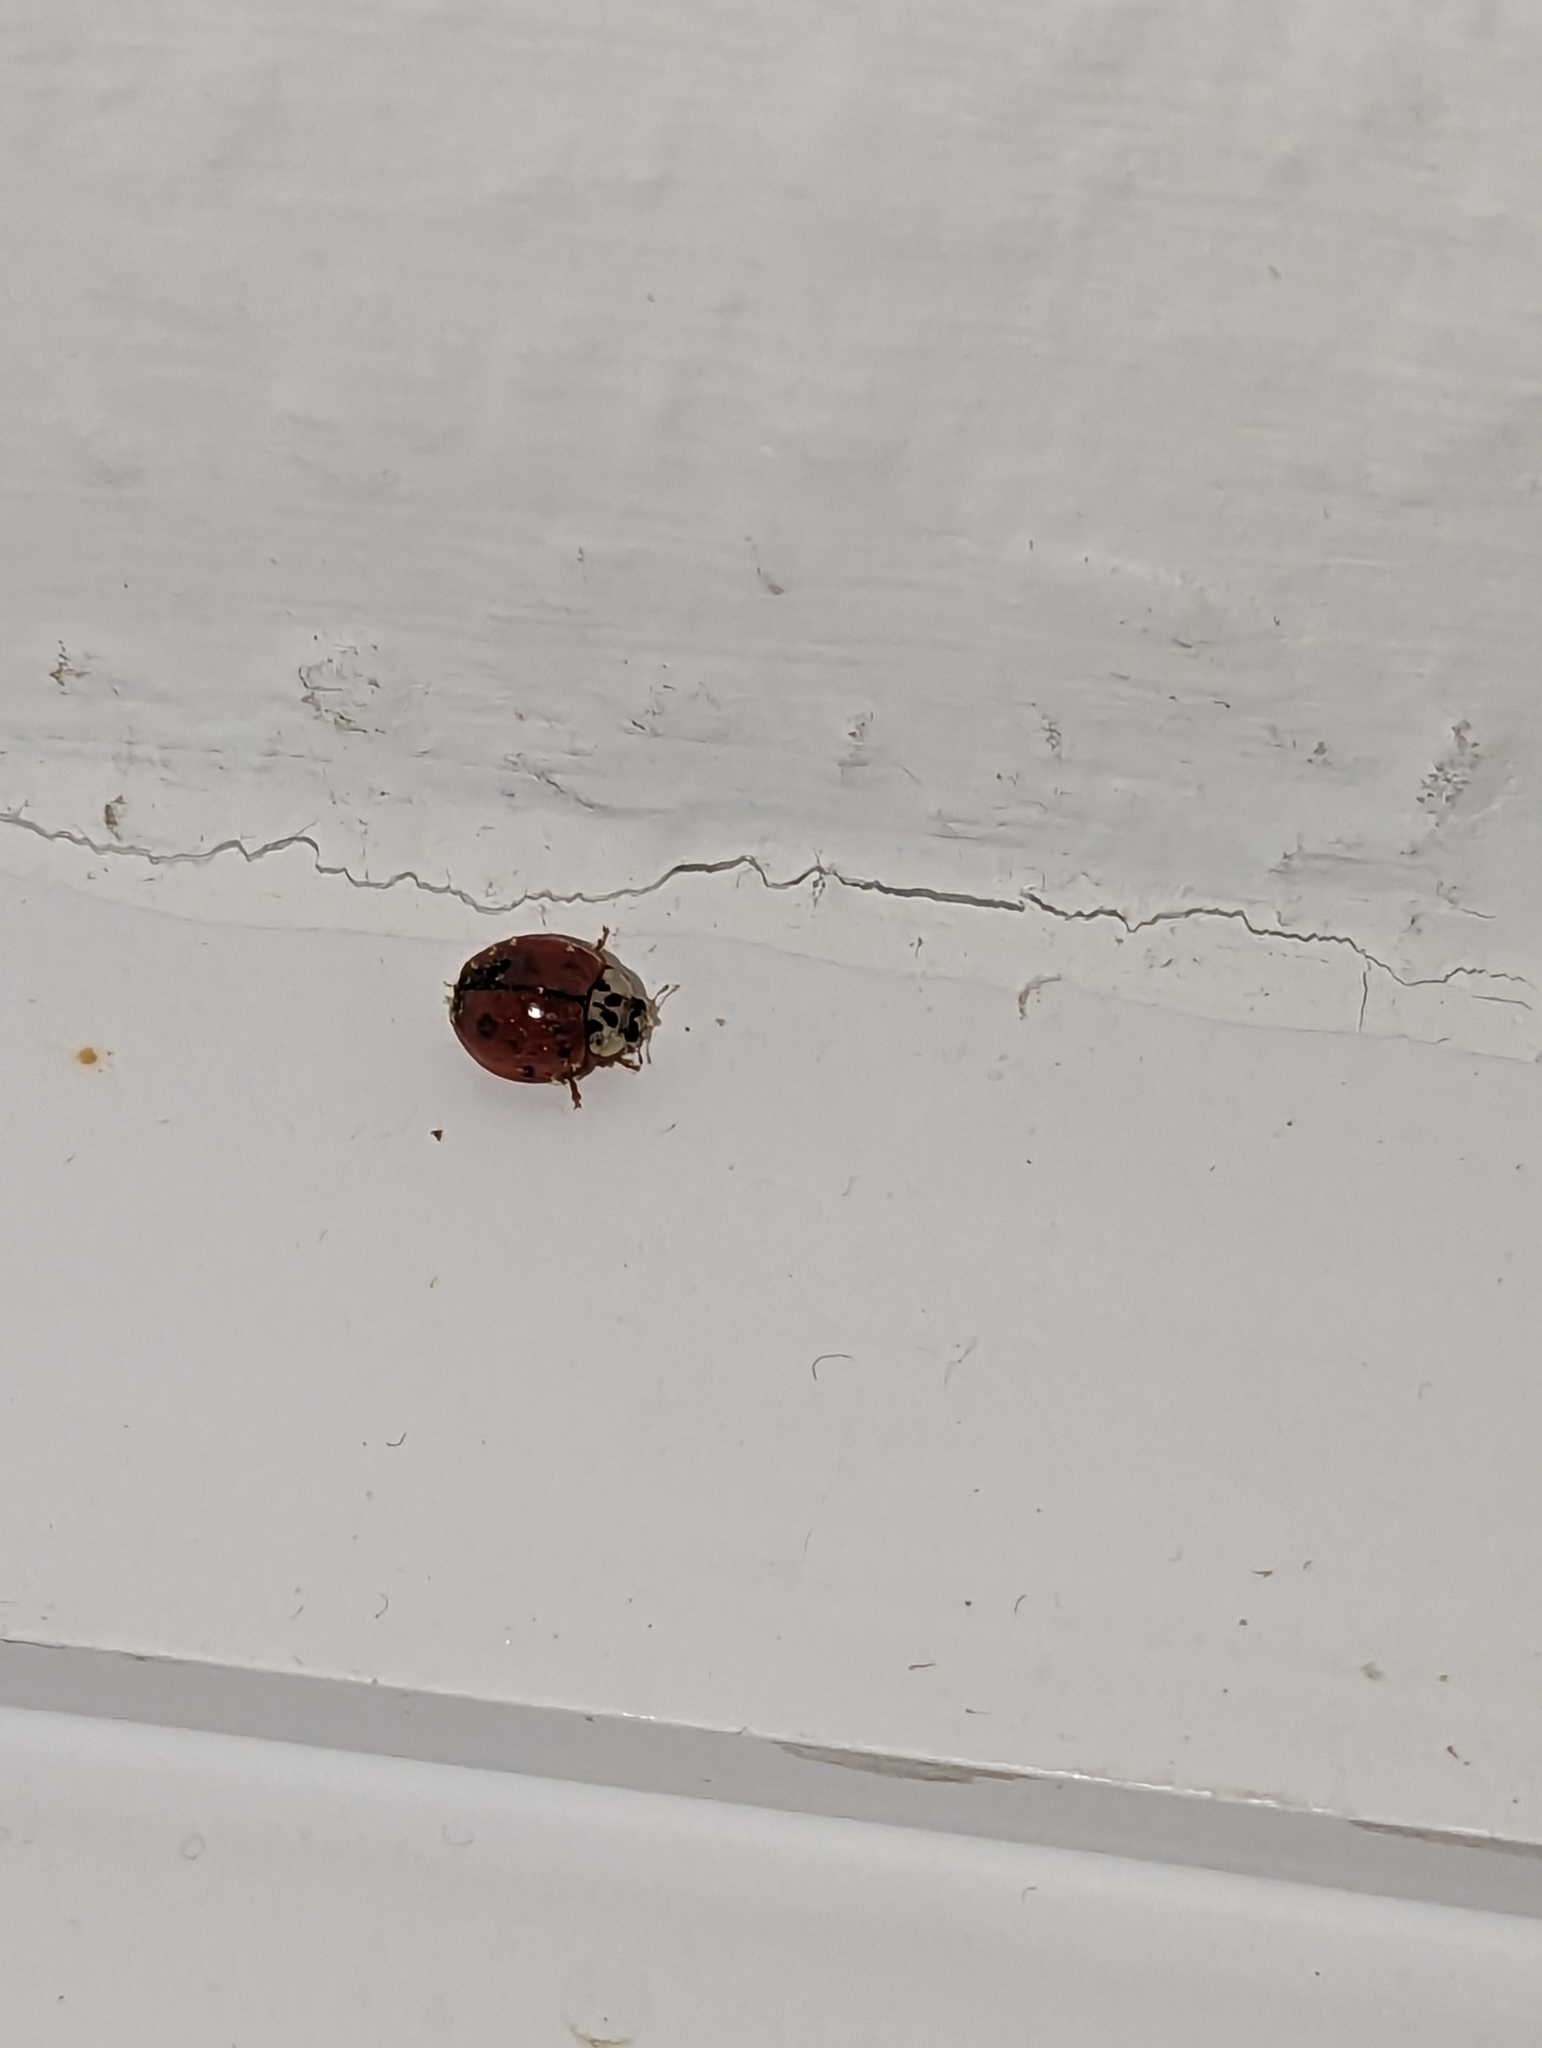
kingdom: Animalia
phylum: Arthropoda
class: Insecta
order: Coleoptera
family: Coccinellidae
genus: Harmonia
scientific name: Harmonia axyridis
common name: Harlequin ladybird
